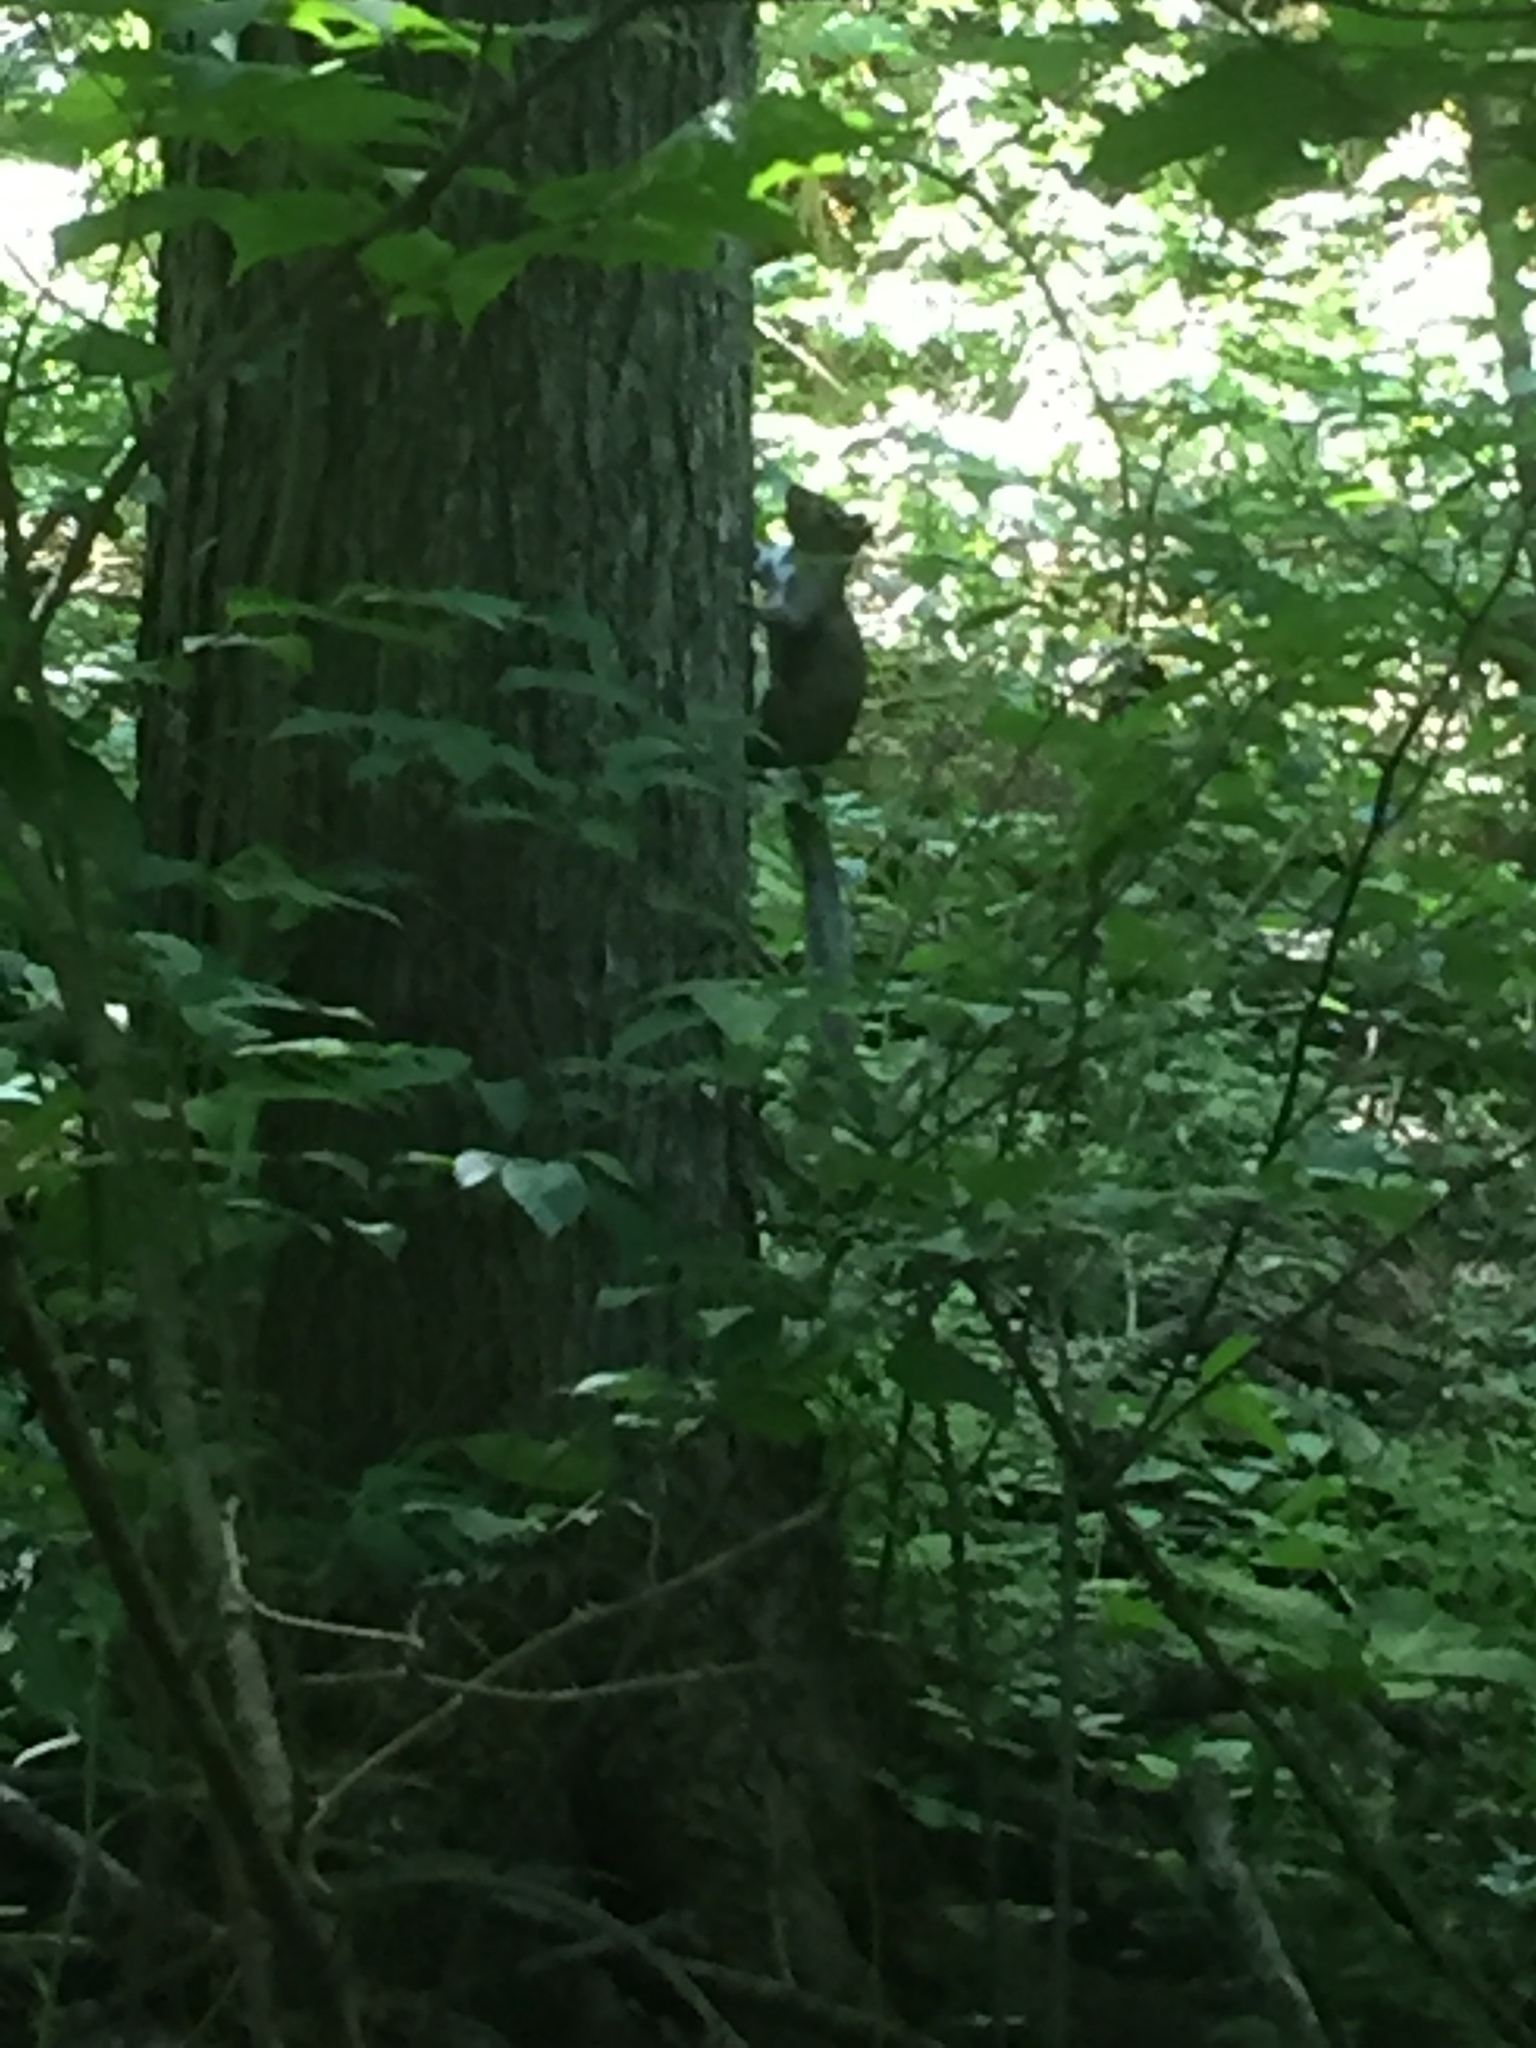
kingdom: Animalia
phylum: Chordata
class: Mammalia
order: Rodentia
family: Sciuridae
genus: Sciurus
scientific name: Sciurus carolinensis
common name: Eastern gray squirrel
